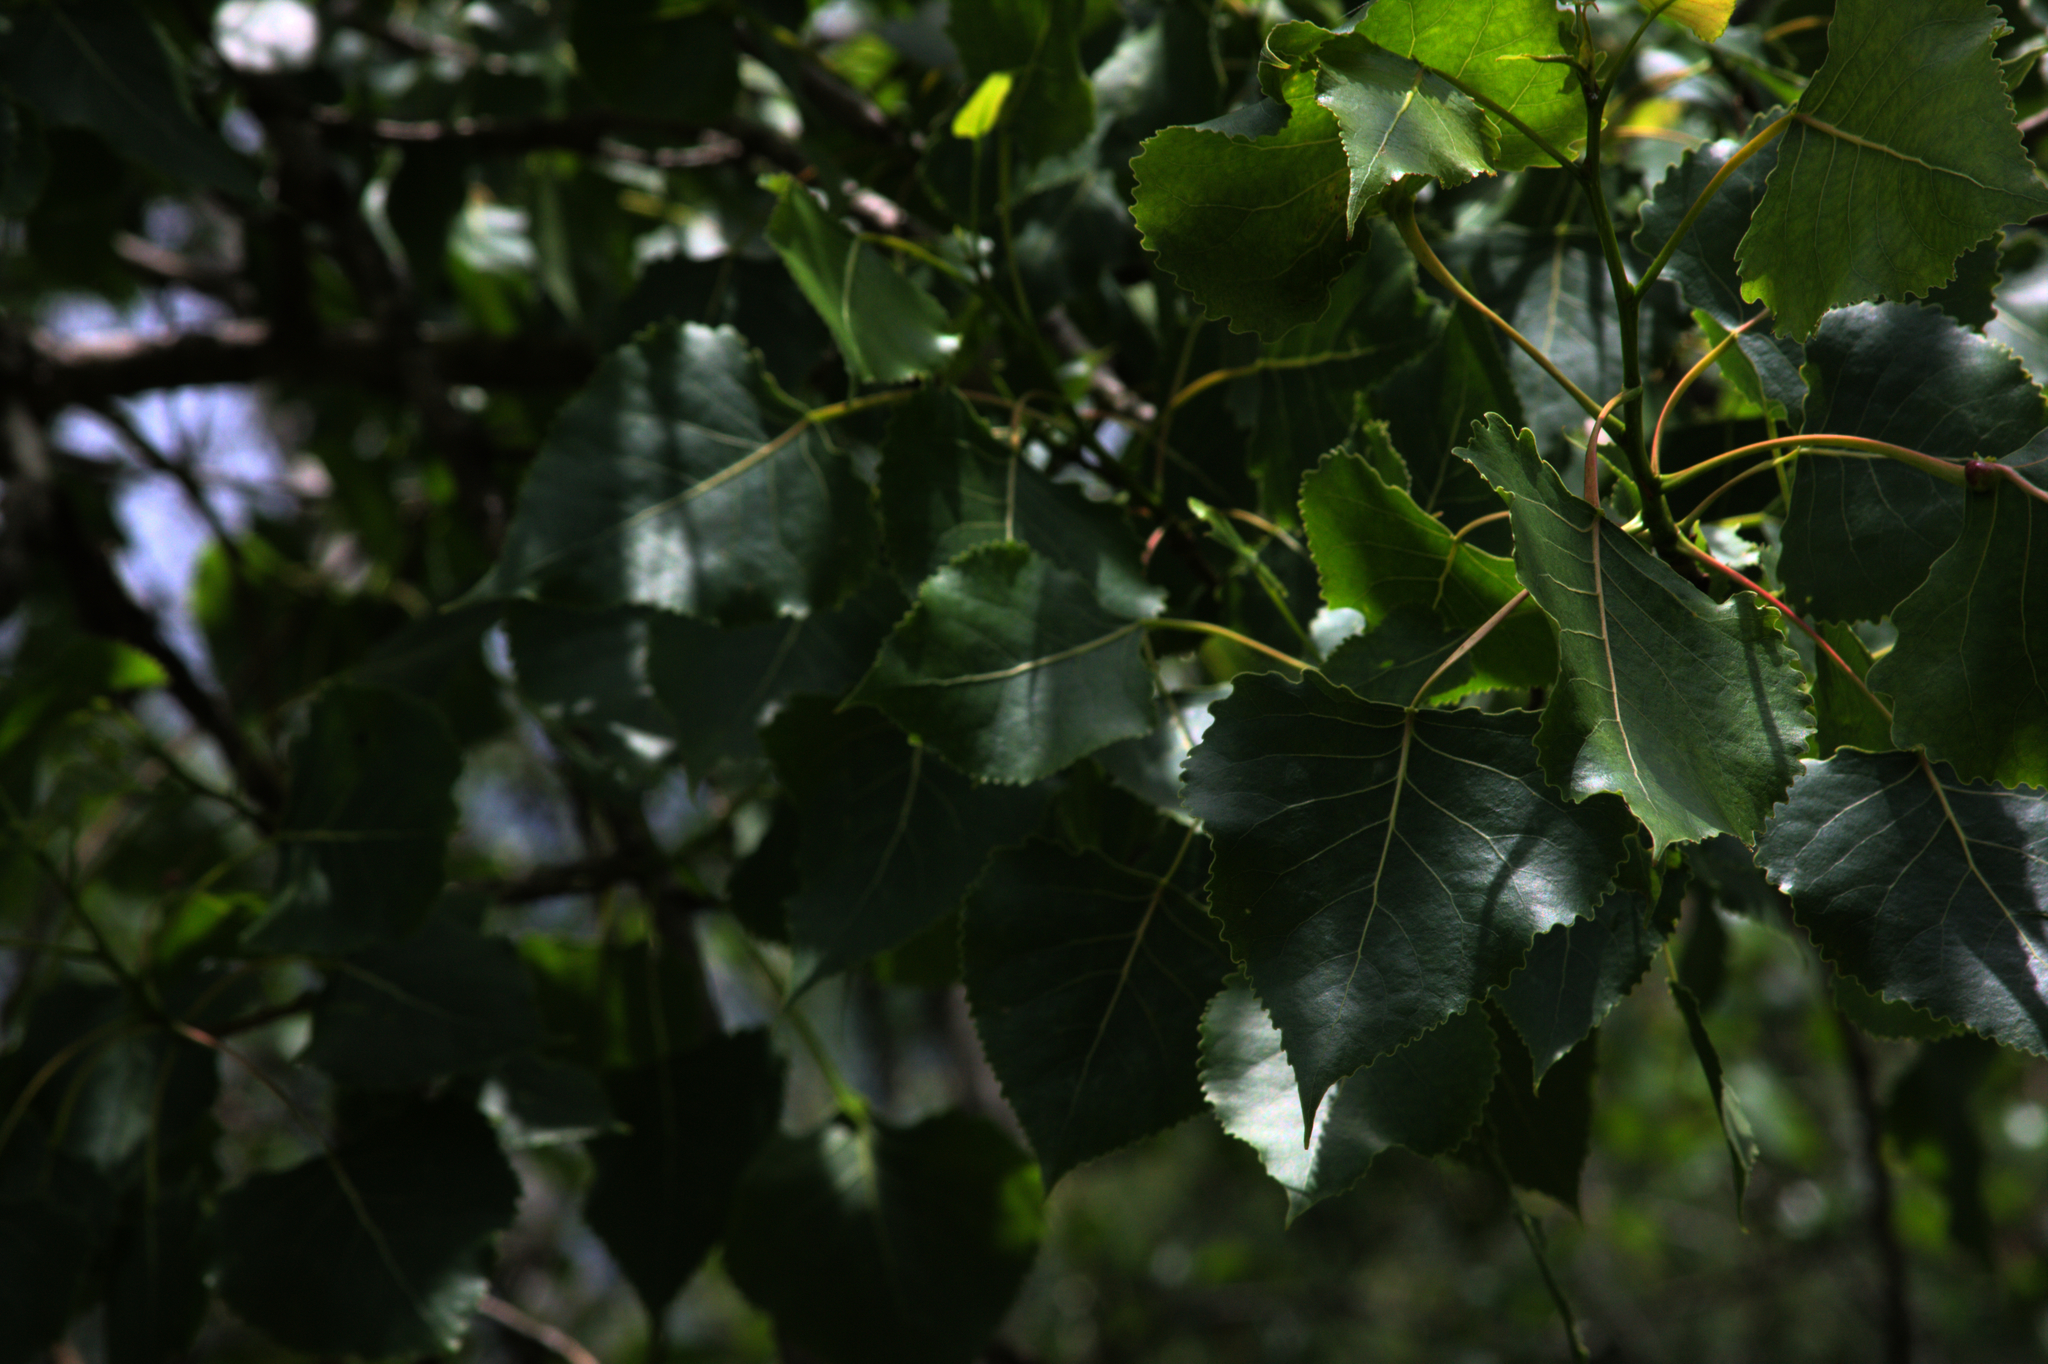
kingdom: Plantae
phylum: Tracheophyta
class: Magnoliopsida
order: Malpighiales
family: Salicaceae
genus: Populus
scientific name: Populus deltoides
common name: Eastern cottonwood
